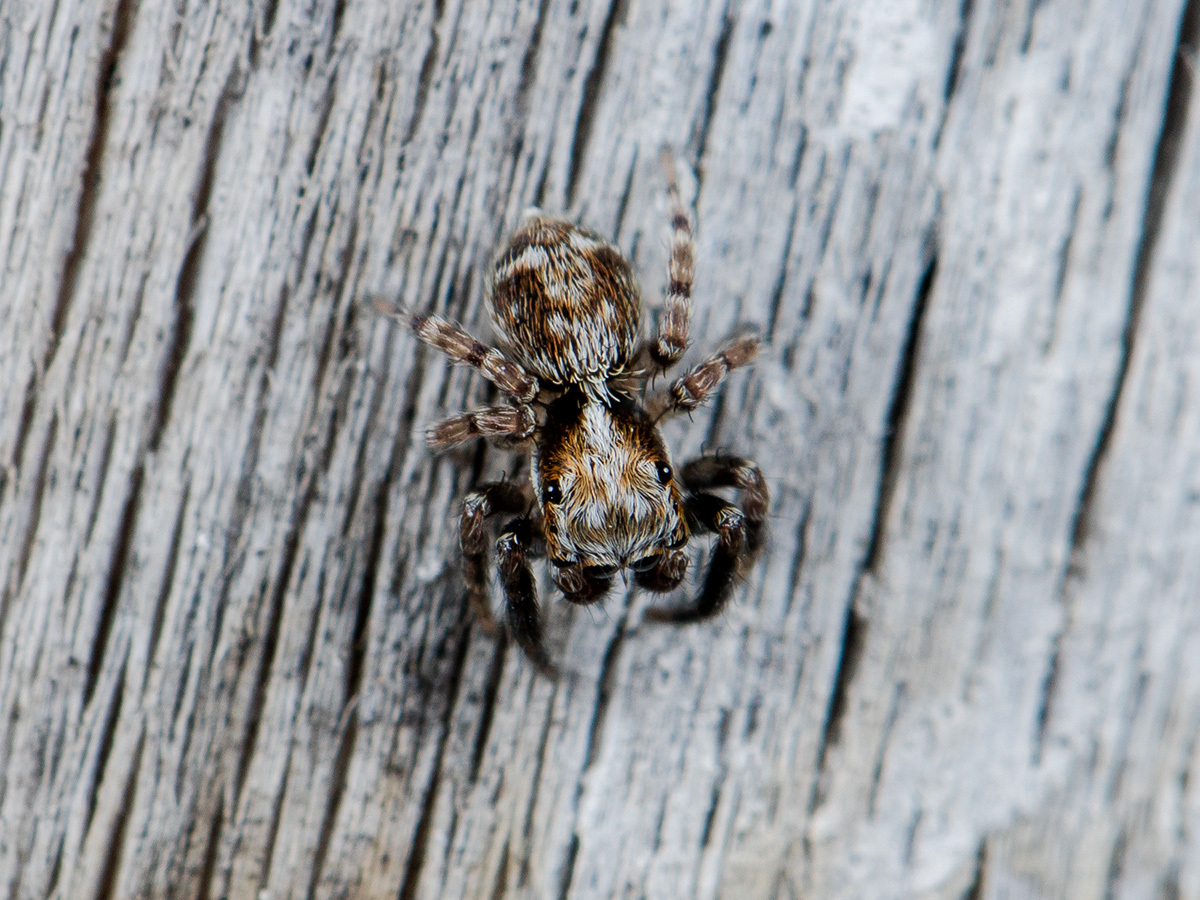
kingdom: Animalia
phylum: Arthropoda
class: Arachnida
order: Araneae
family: Salticidae
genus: Pseudeuophrys
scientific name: Pseudeuophrys obsoleta
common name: Whelk-shell jumper
